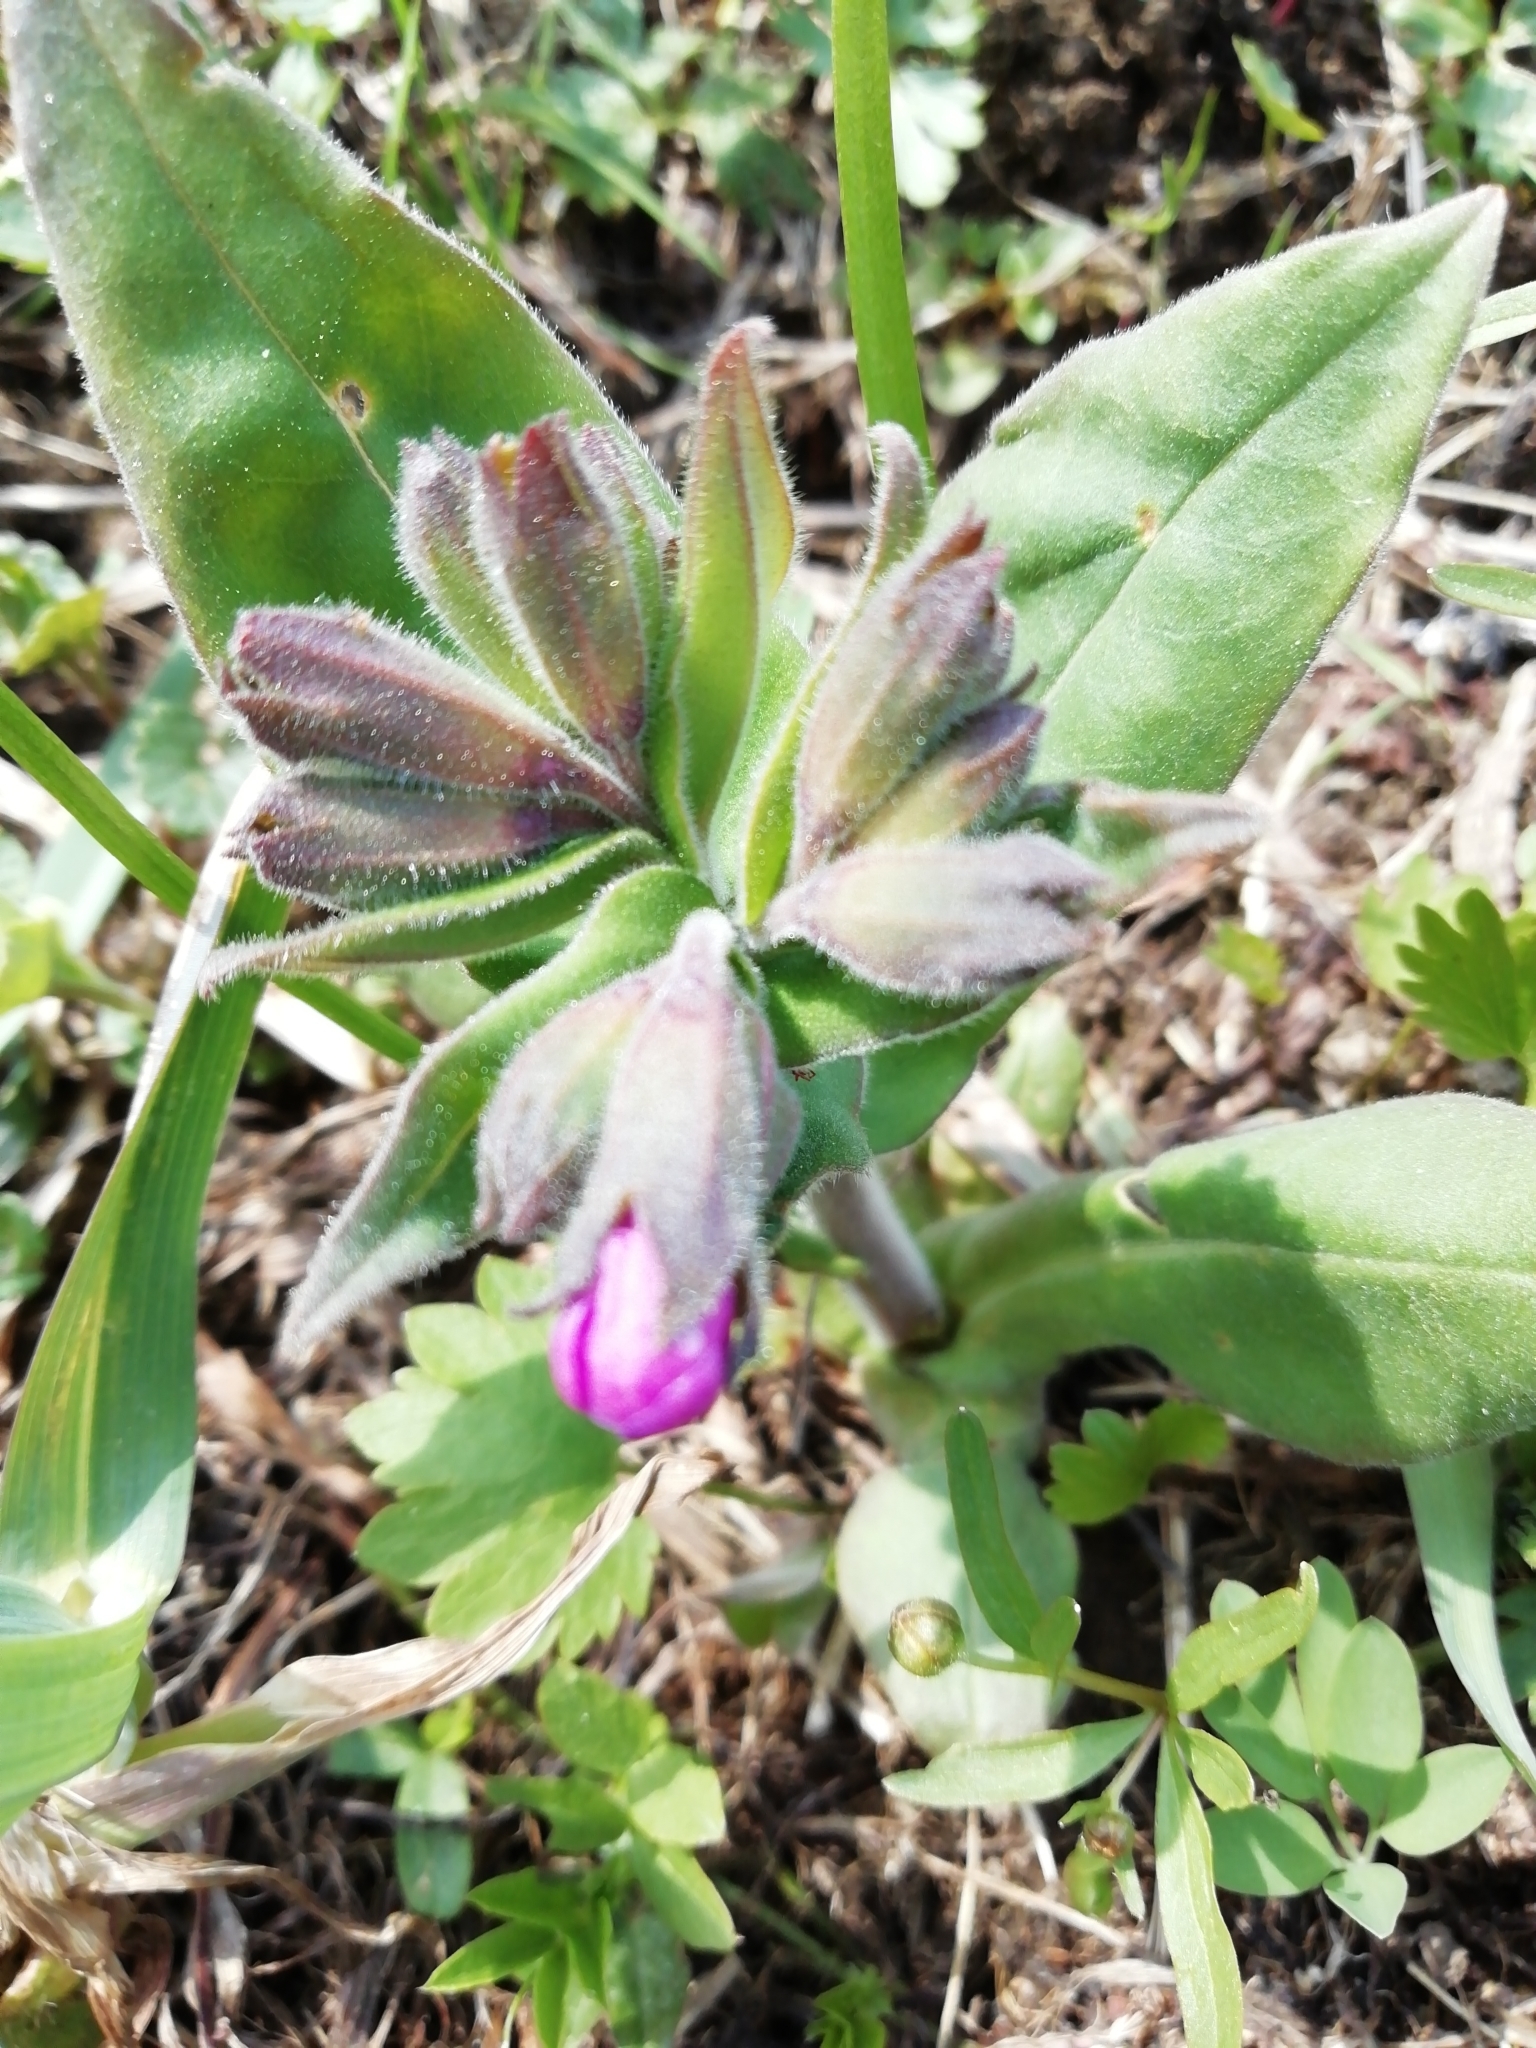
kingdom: Plantae
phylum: Tracheophyta
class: Magnoliopsida
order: Boraginales
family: Boraginaceae
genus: Pulmonaria
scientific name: Pulmonaria mollis
